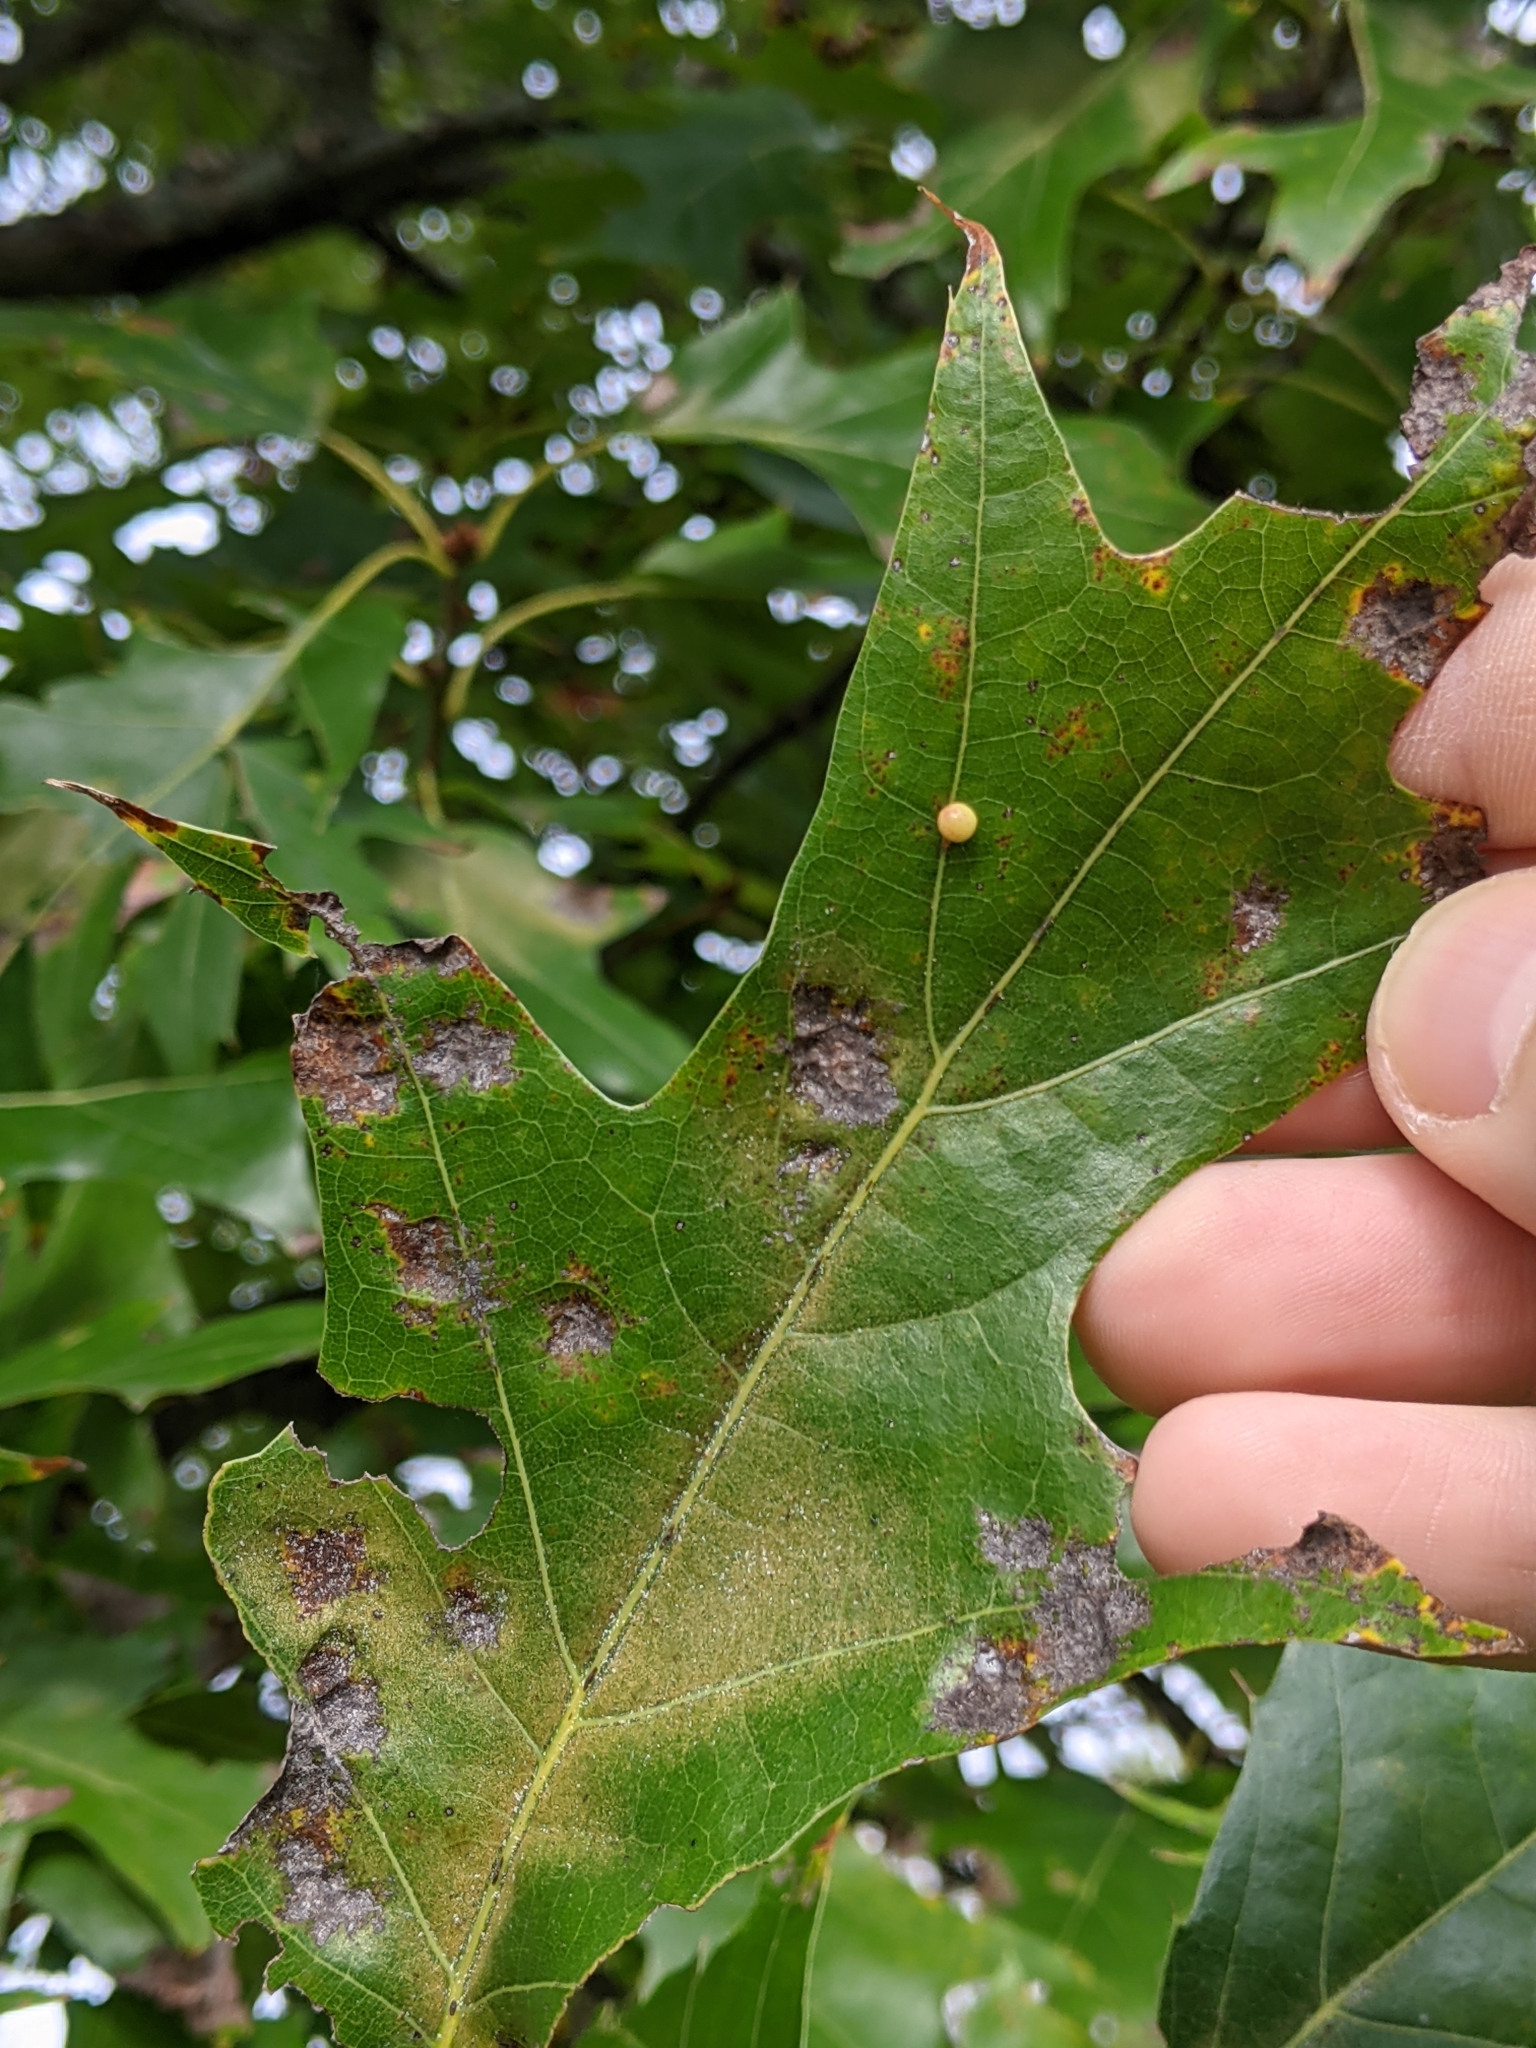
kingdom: Animalia
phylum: Arthropoda
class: Insecta
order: Hymenoptera
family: Cynipidae
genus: Zopheroteras
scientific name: Zopheroteras
